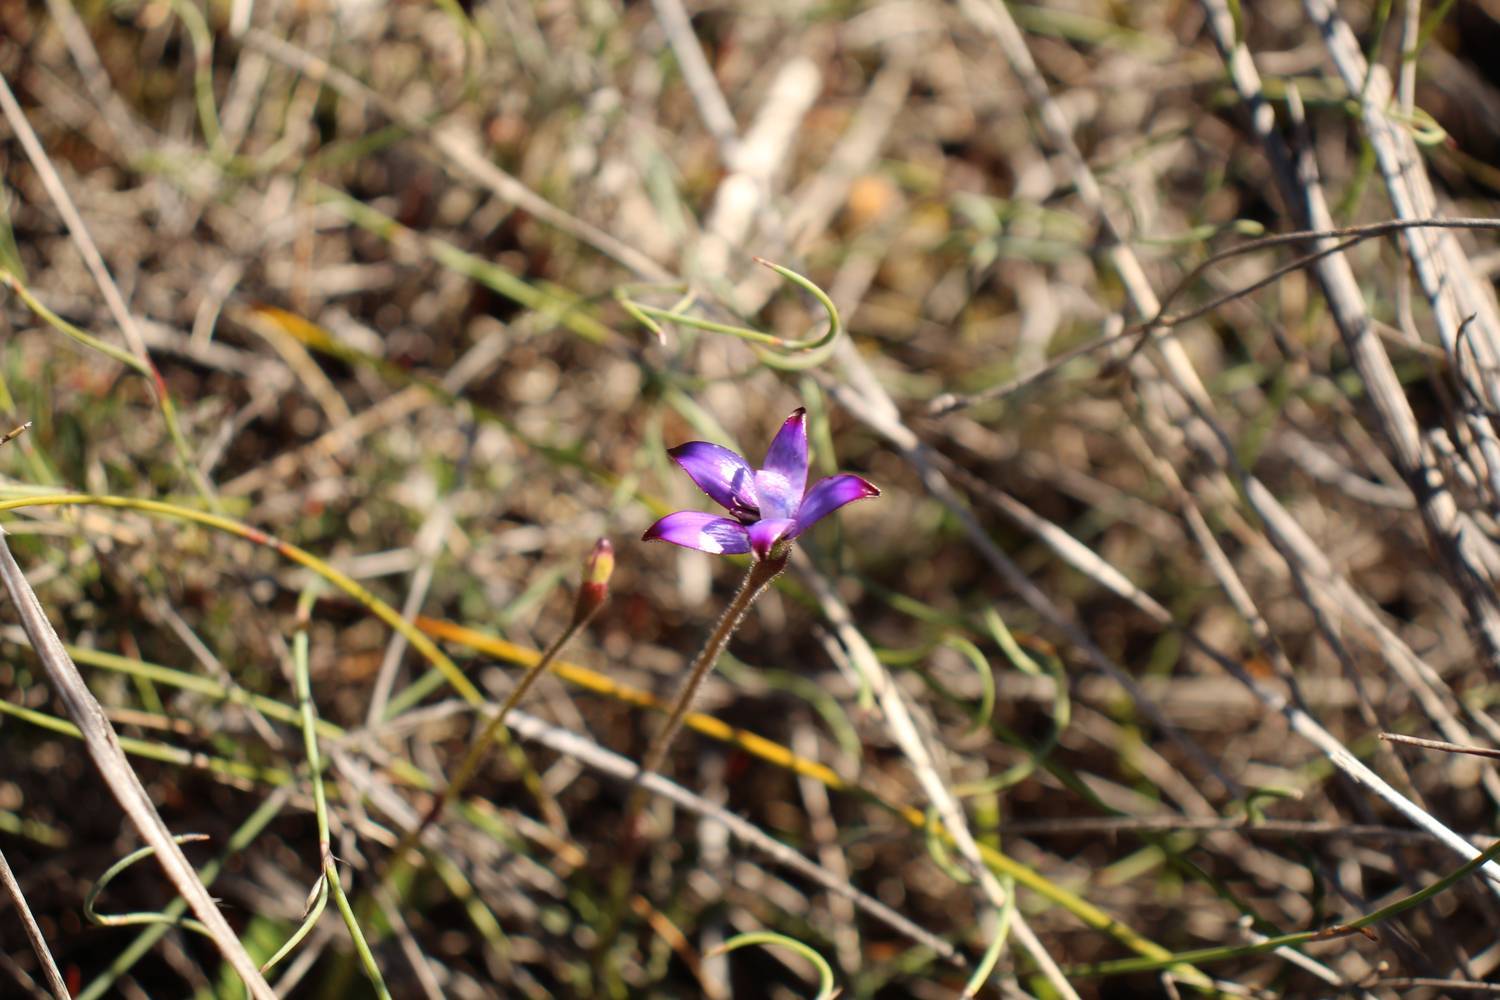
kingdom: Plantae
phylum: Tracheophyta
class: Liliopsida
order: Asparagales
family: Orchidaceae
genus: Caladenia
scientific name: Caladenia brunonis
